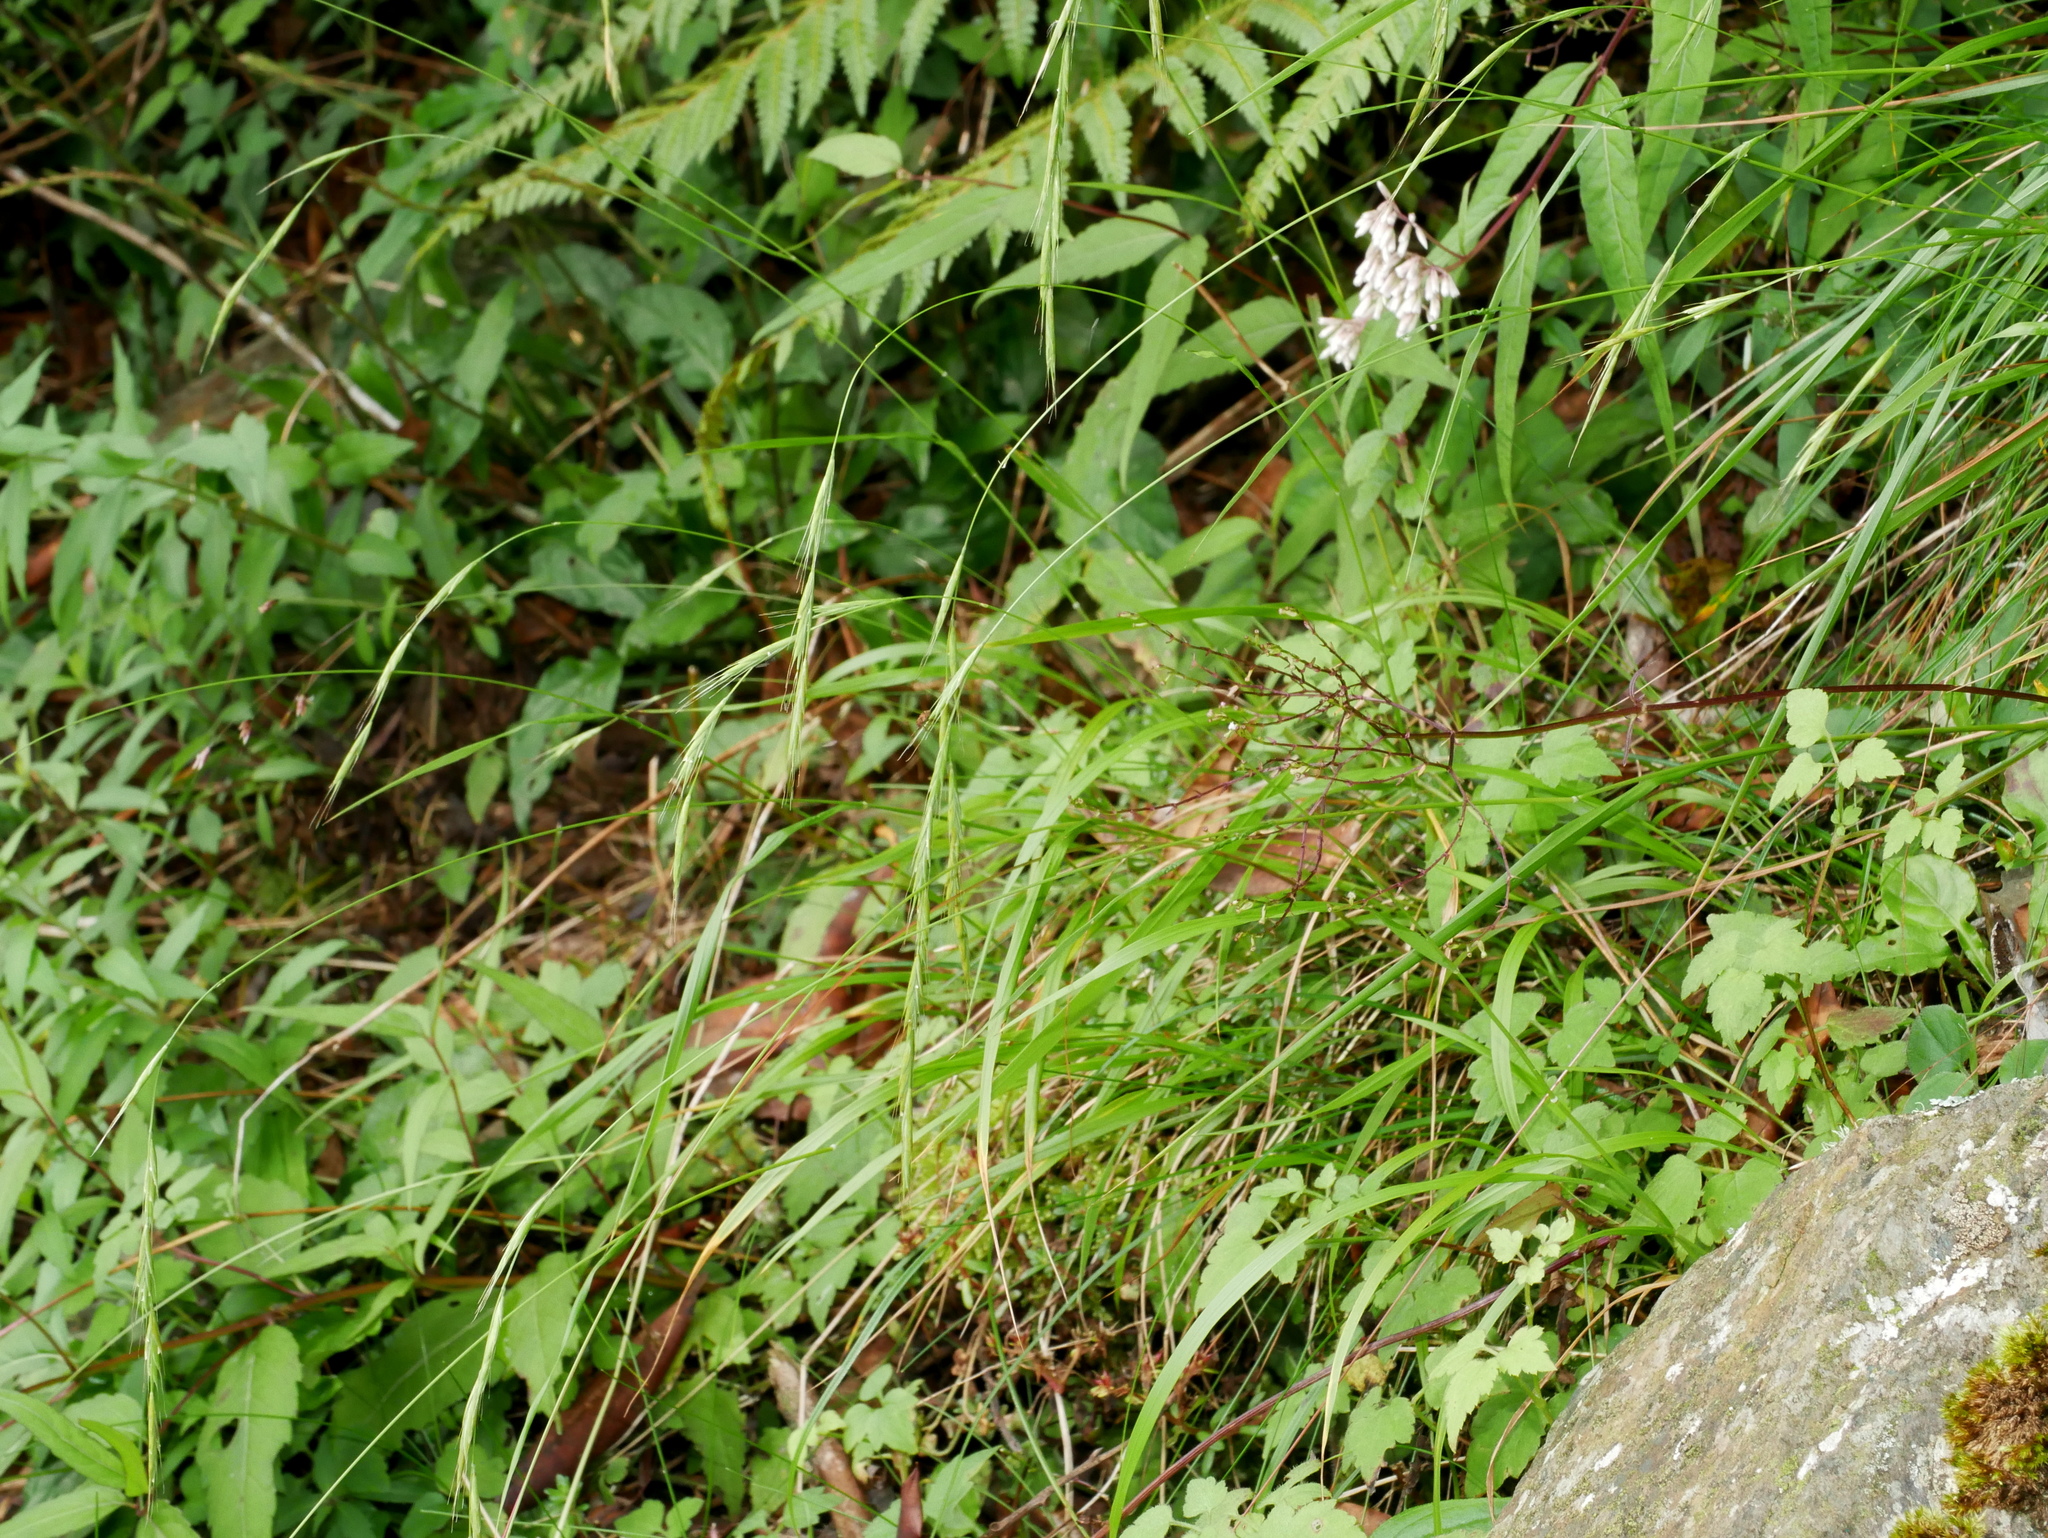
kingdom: Plantae
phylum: Tracheophyta
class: Liliopsida
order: Poales
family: Poaceae
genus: Brachypodium
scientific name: Brachypodium sylvaticum
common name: False-brome
